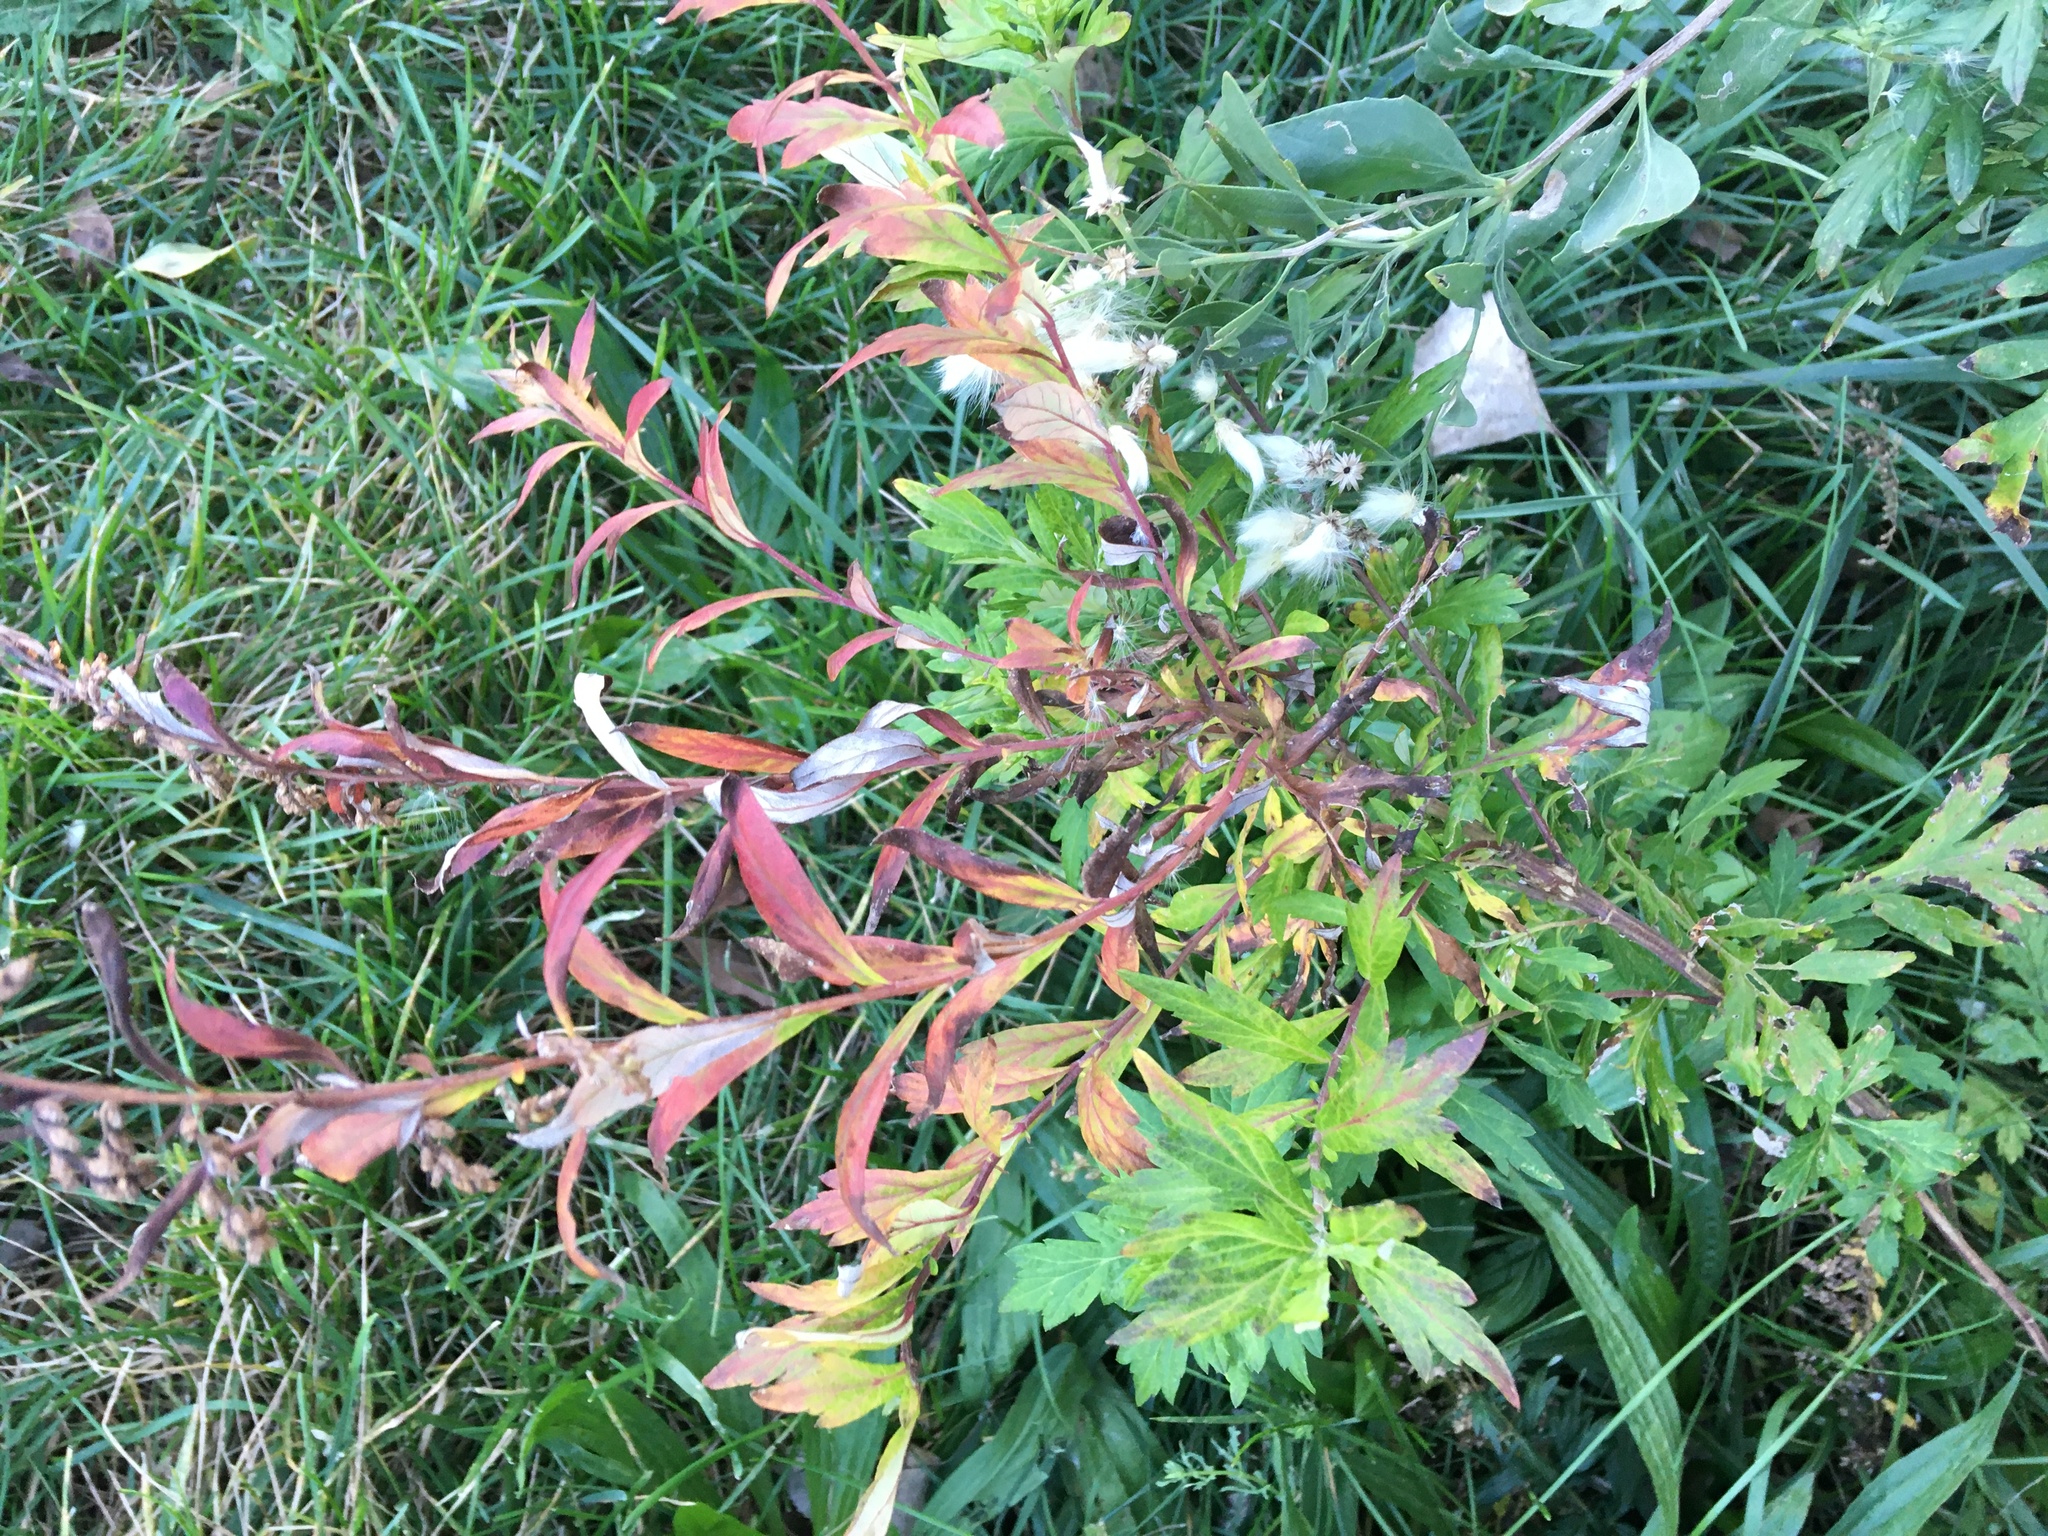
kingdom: Plantae
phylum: Tracheophyta
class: Magnoliopsida
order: Asterales
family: Asteraceae
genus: Artemisia
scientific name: Artemisia vulgaris
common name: Mugwort
